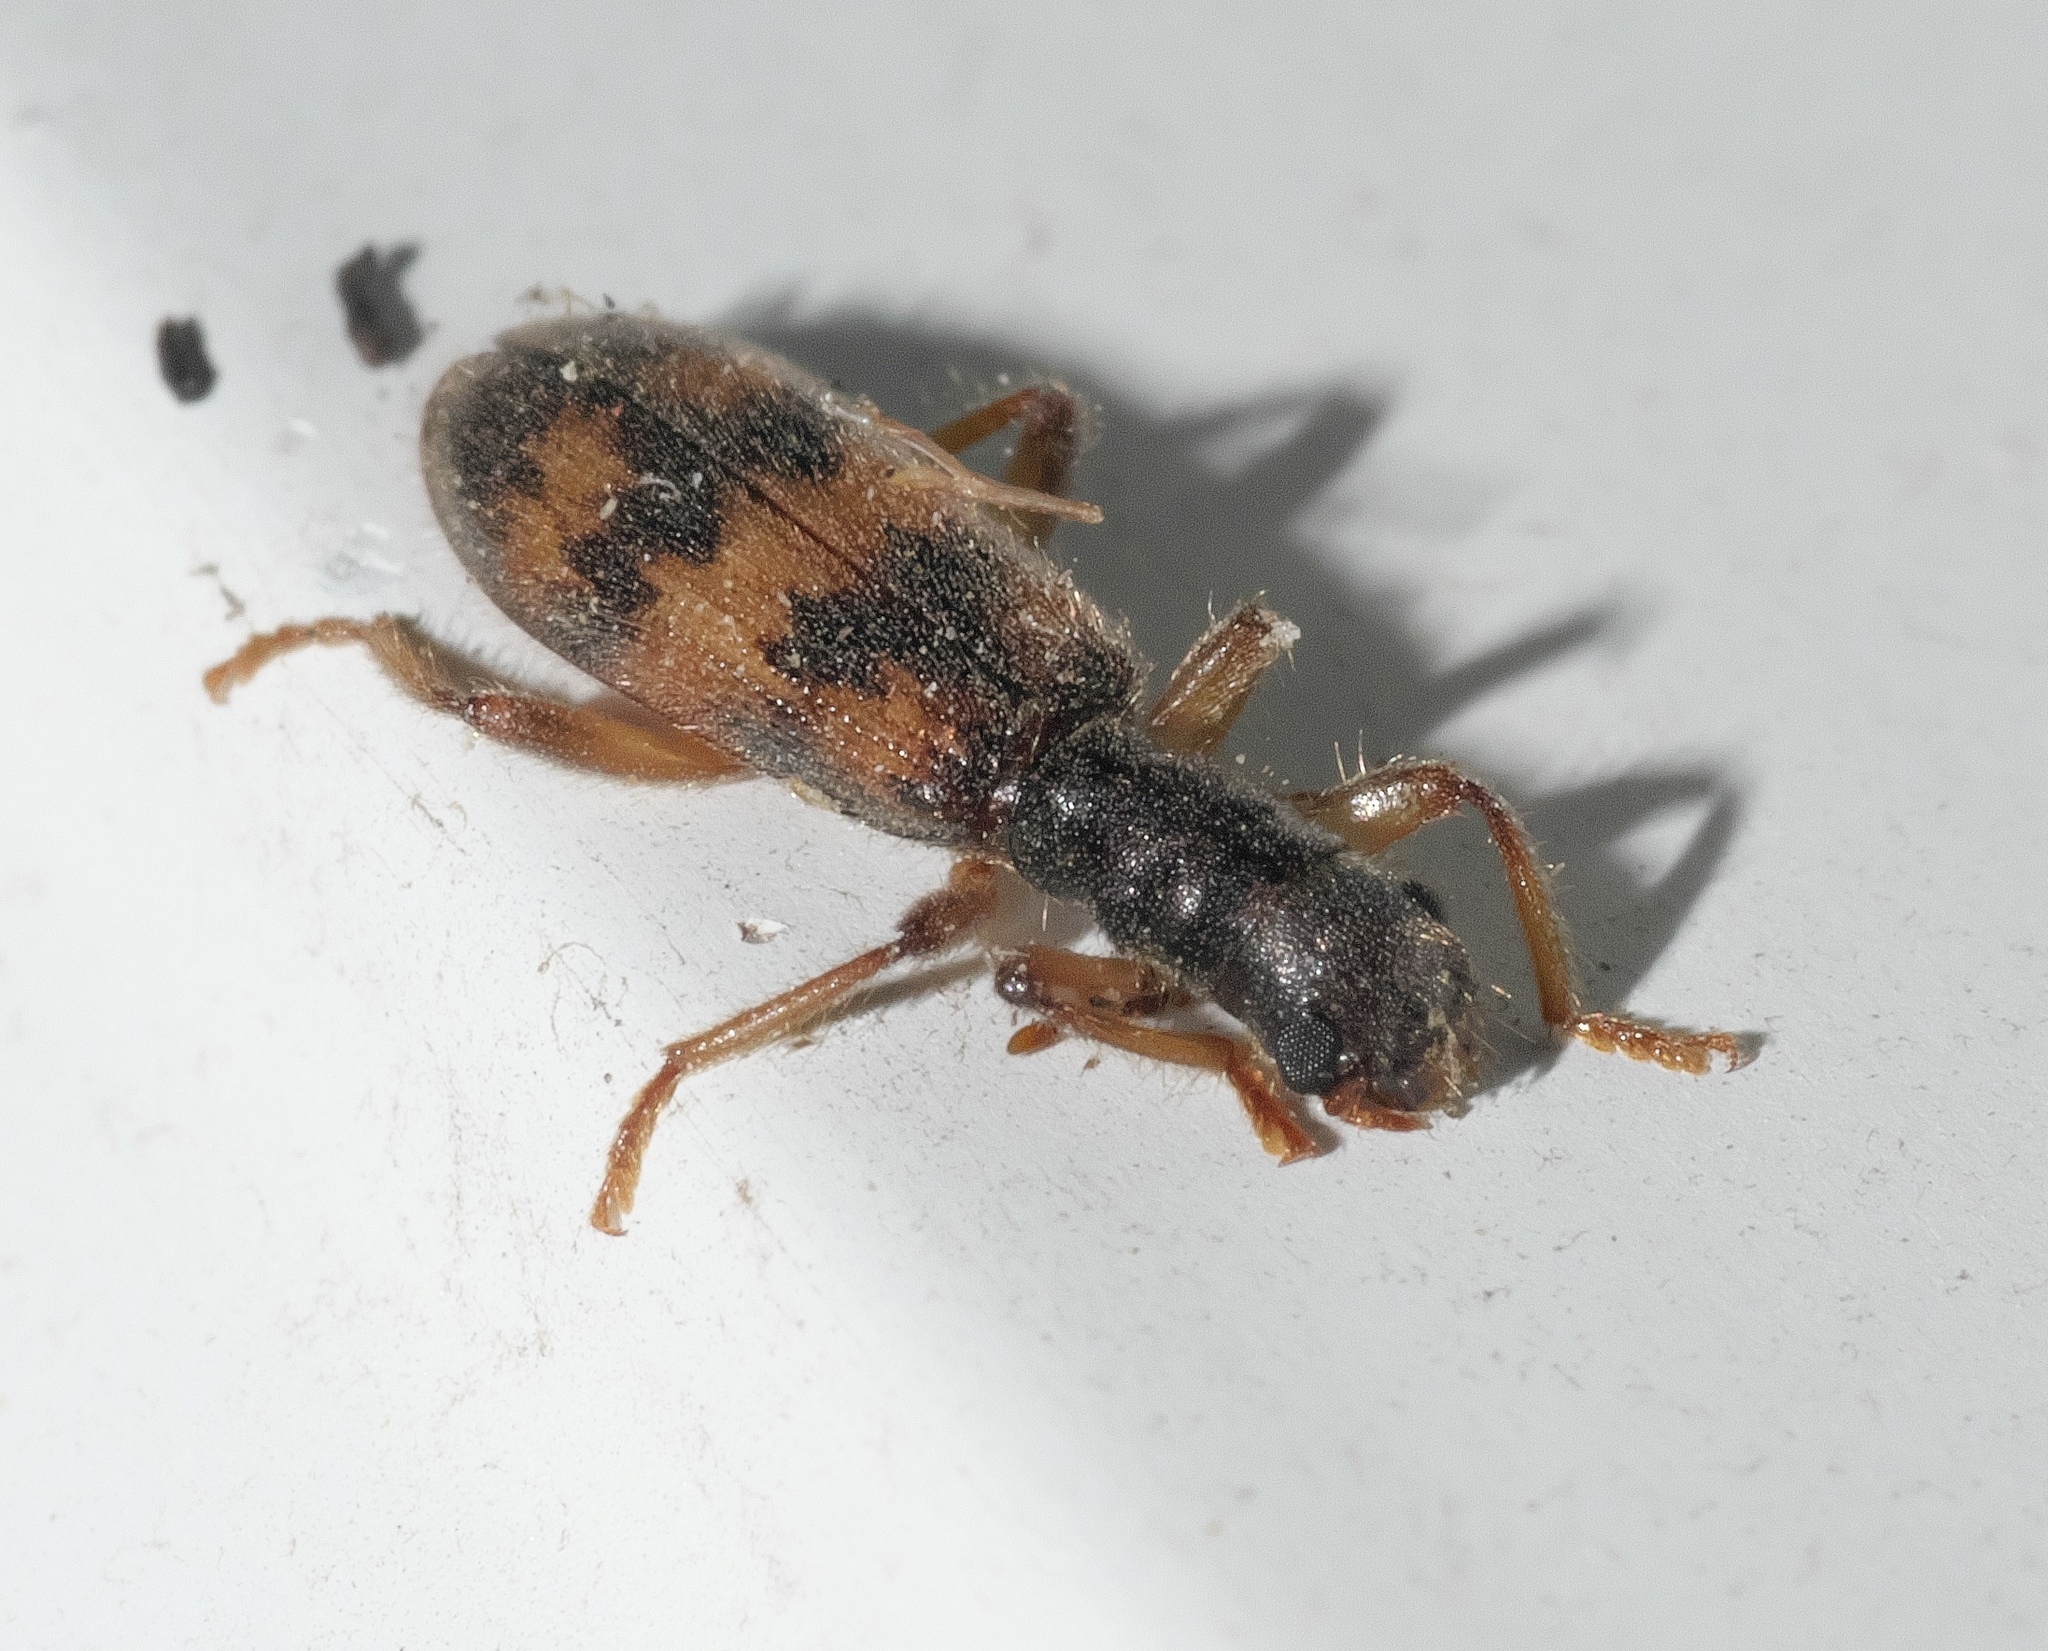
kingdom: Animalia
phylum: Arthropoda
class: Insecta
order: Coleoptera
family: Cleridae
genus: Cymatodera
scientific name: Cymatodera undulata
